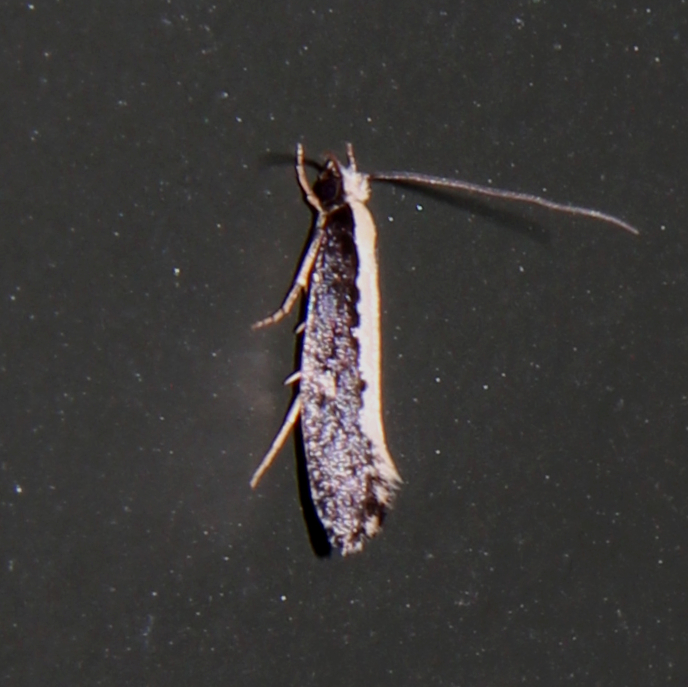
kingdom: Animalia
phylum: Arthropoda
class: Insecta
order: Lepidoptera
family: Tineidae
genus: Monopis
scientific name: Monopis ethelella
